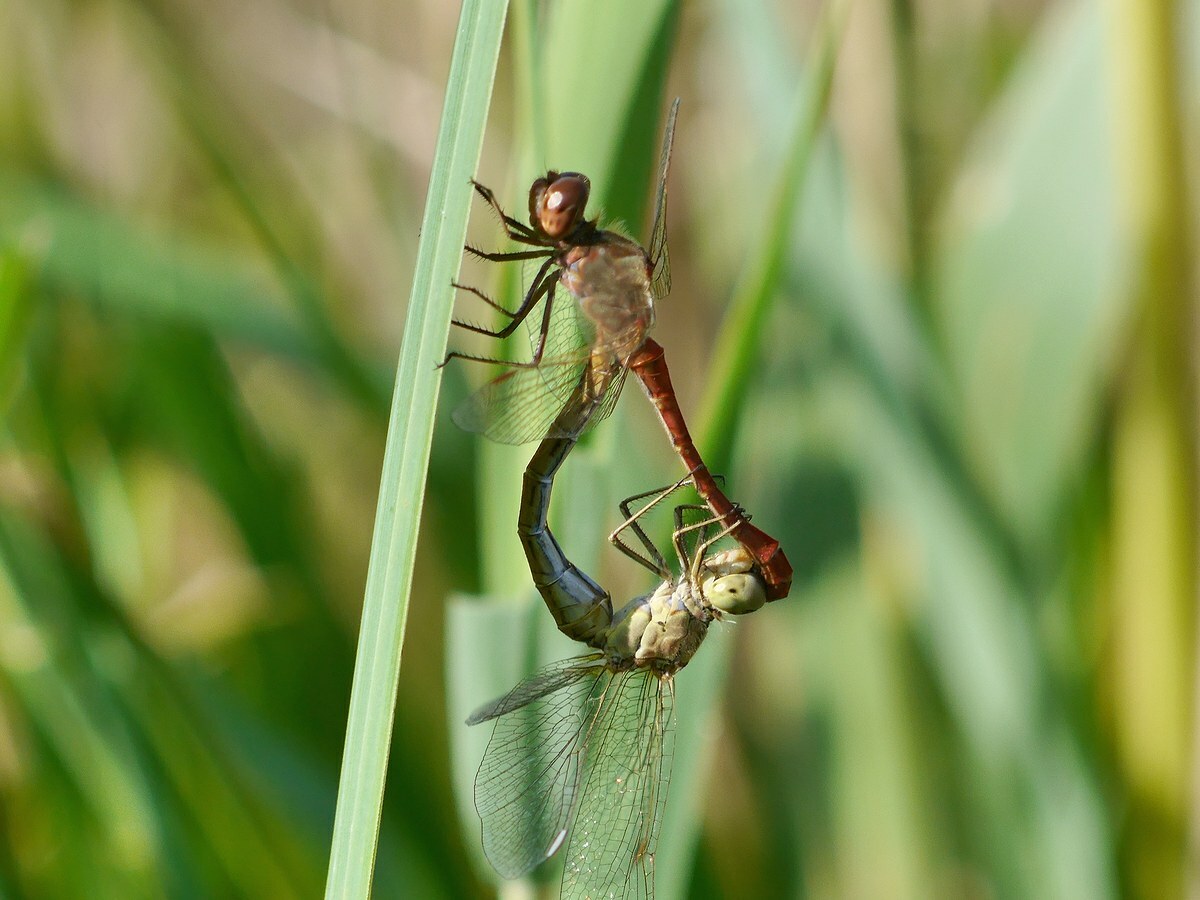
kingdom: Animalia
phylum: Arthropoda
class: Insecta
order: Odonata
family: Libellulidae
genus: Sympetrum
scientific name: Sympetrum meridionale
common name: Southern darter
